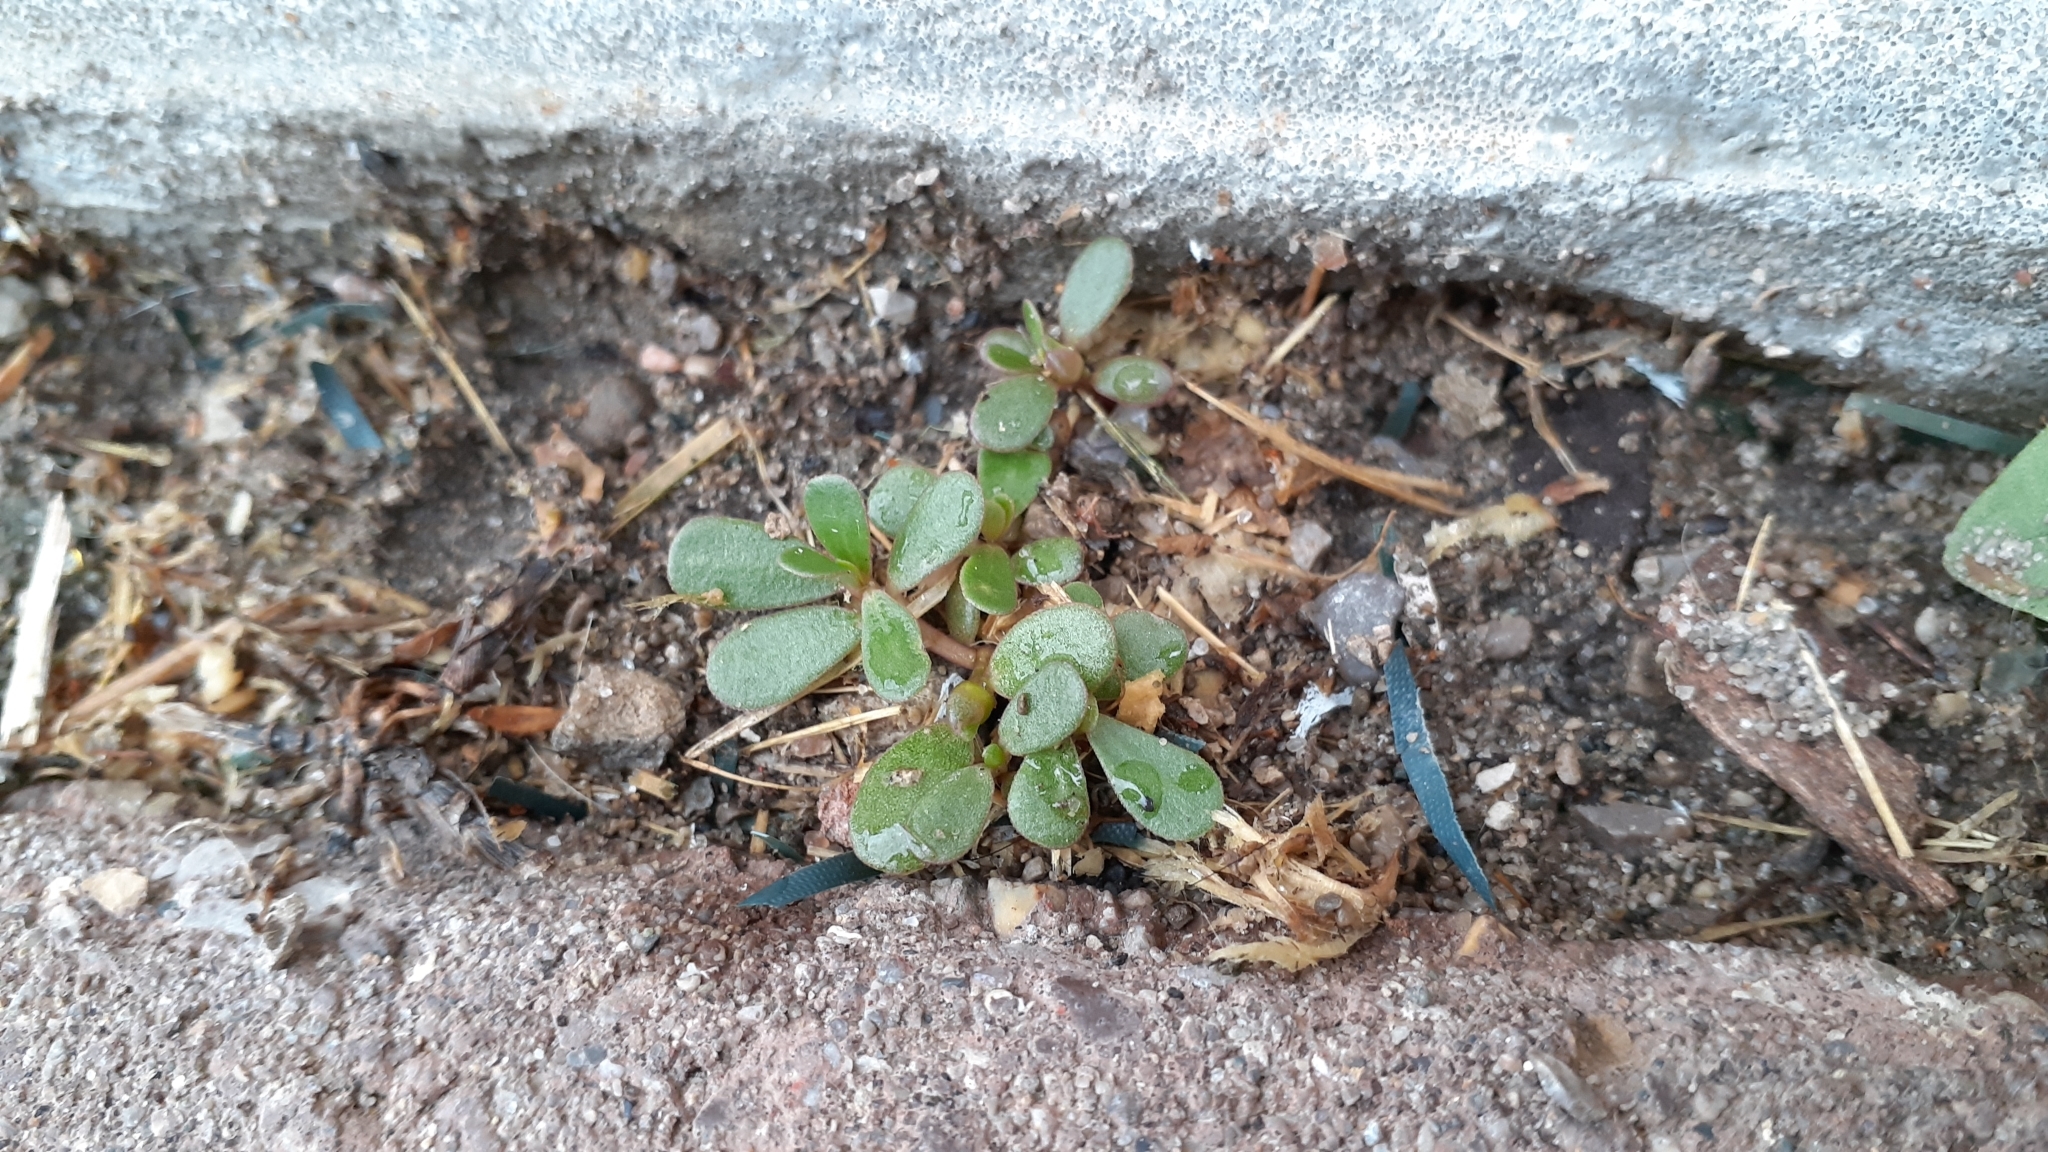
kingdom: Plantae
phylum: Tracheophyta
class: Magnoliopsida
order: Caryophyllales
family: Portulacaceae
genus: Portulaca
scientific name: Portulaca oleracea
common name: Common purslane
